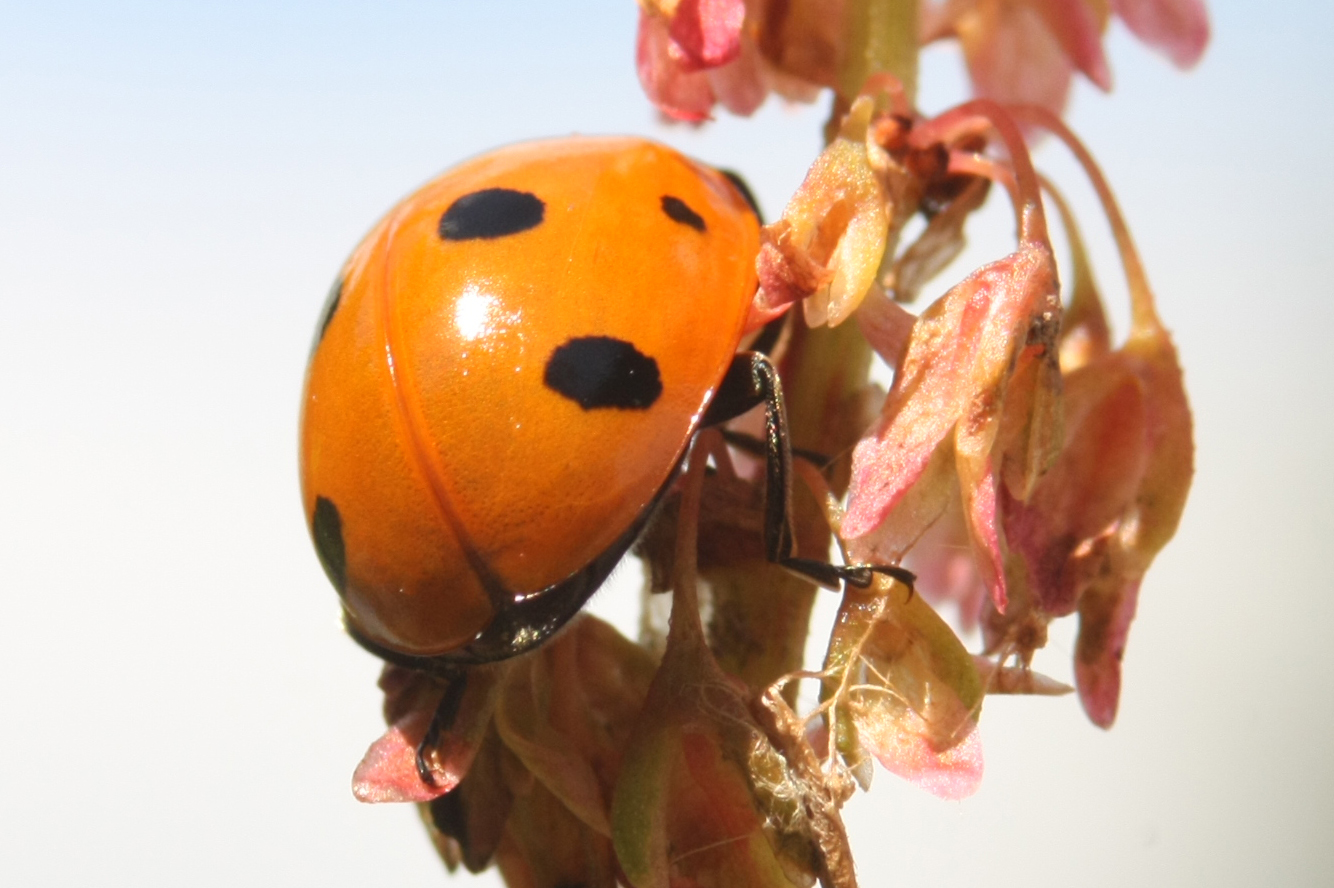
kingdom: Animalia
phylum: Arthropoda
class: Insecta
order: Coleoptera
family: Coccinellidae
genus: Coccinella
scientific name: Coccinella septempunctata
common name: Sevenspotted lady beetle
